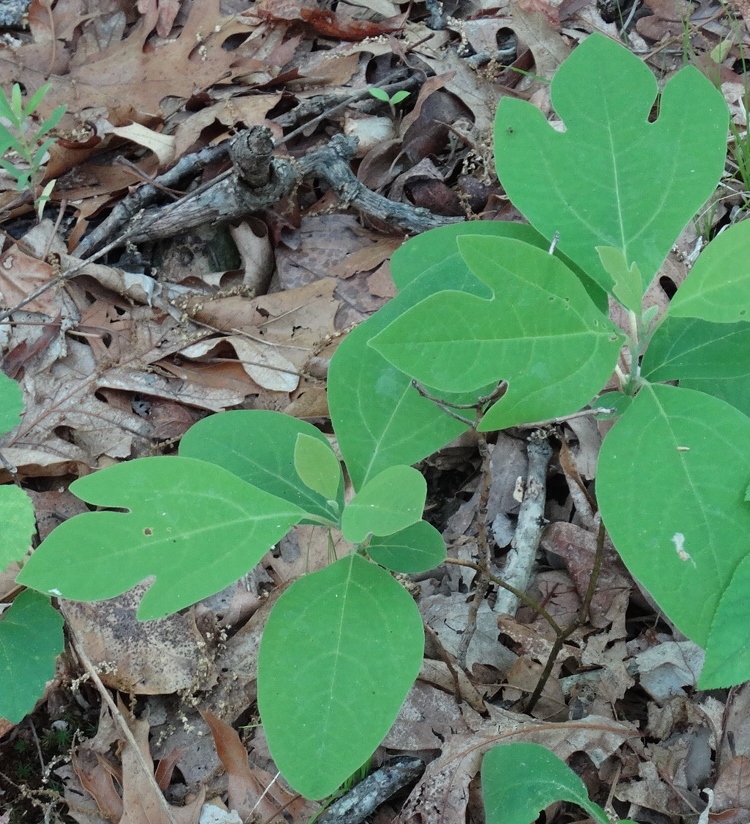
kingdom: Plantae
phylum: Tracheophyta
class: Magnoliopsida
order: Laurales
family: Lauraceae
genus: Sassafras
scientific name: Sassafras albidum
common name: Sassafras
